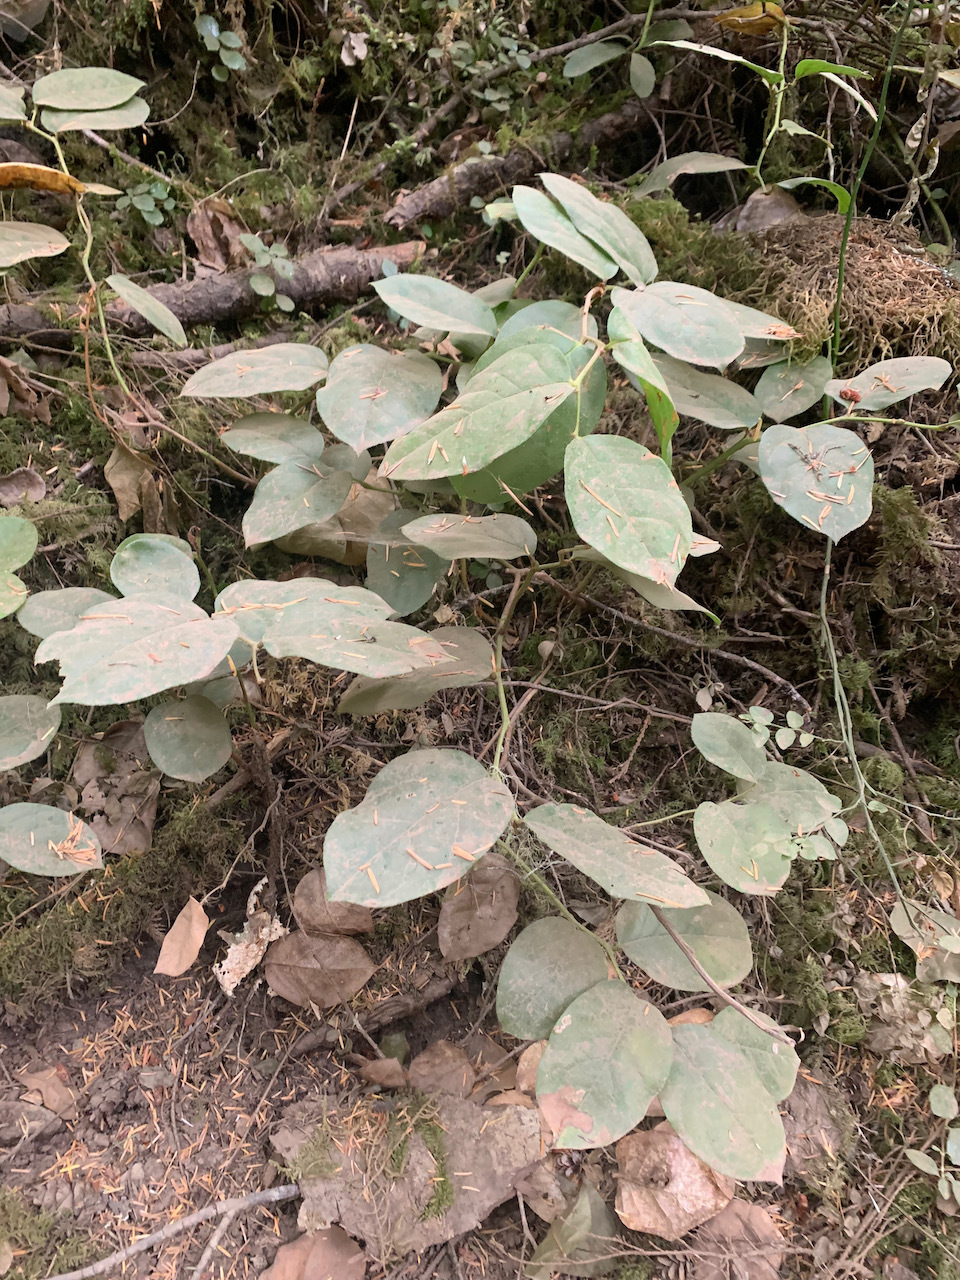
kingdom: Plantae
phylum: Tracheophyta
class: Magnoliopsida
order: Ericales
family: Ericaceae
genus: Gaultheria
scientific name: Gaultheria shallon
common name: Shallon
